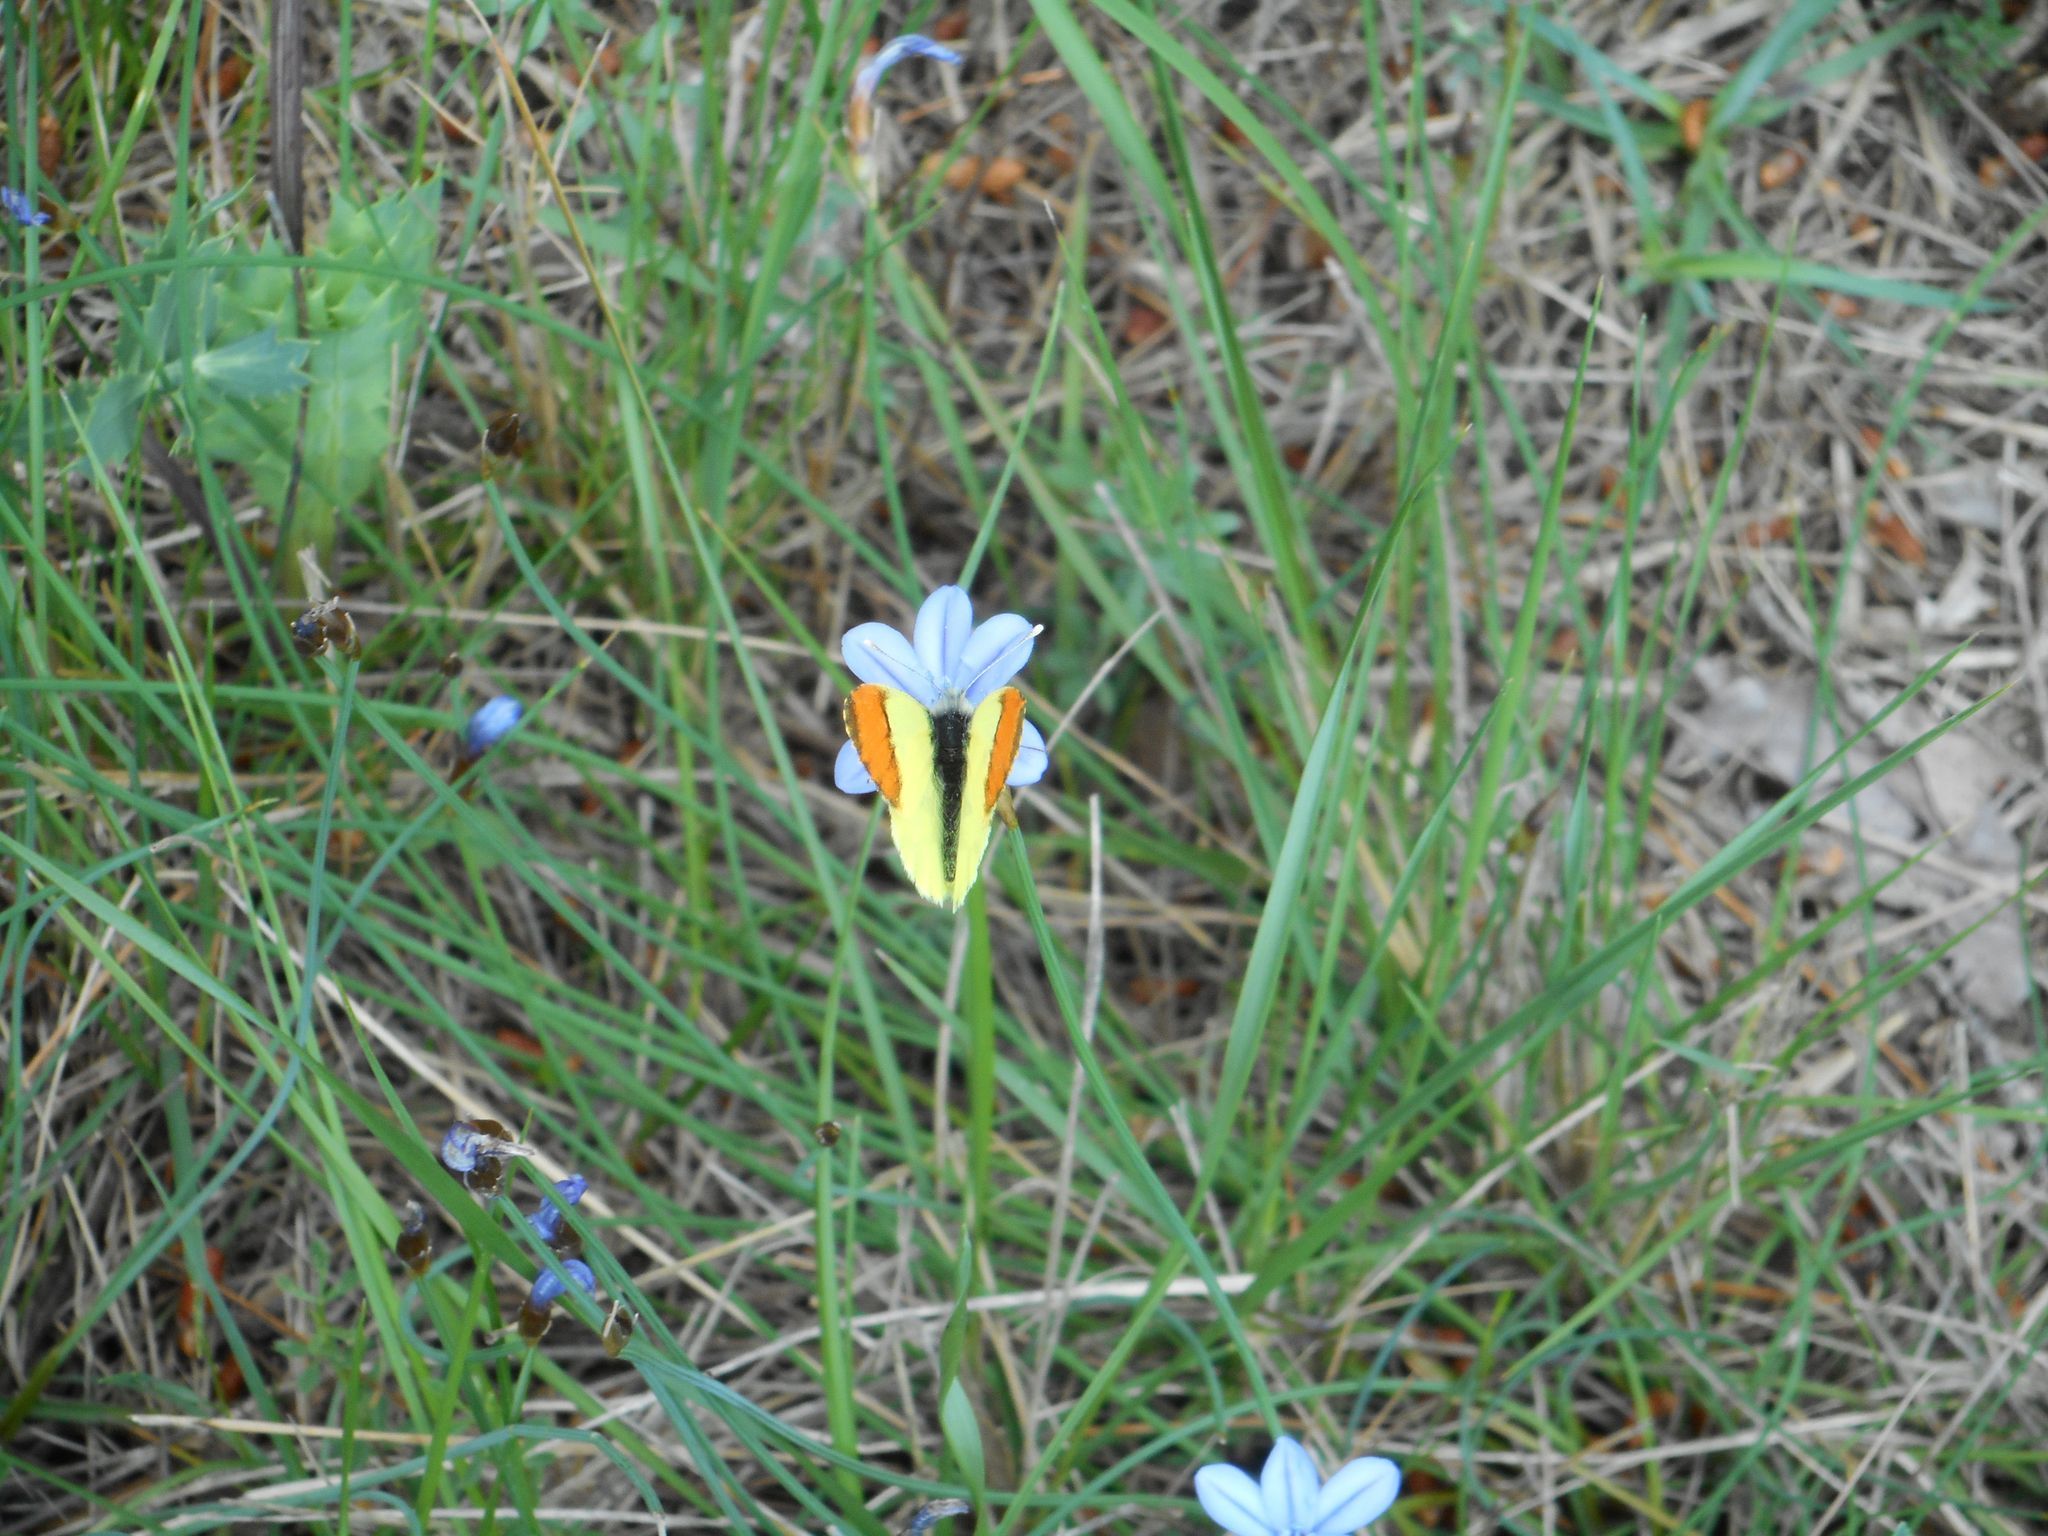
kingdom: Animalia
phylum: Arthropoda
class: Insecta
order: Lepidoptera
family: Pieridae
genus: Anthocharis
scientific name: Anthocharis euphenoides
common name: Provence orange-tip
